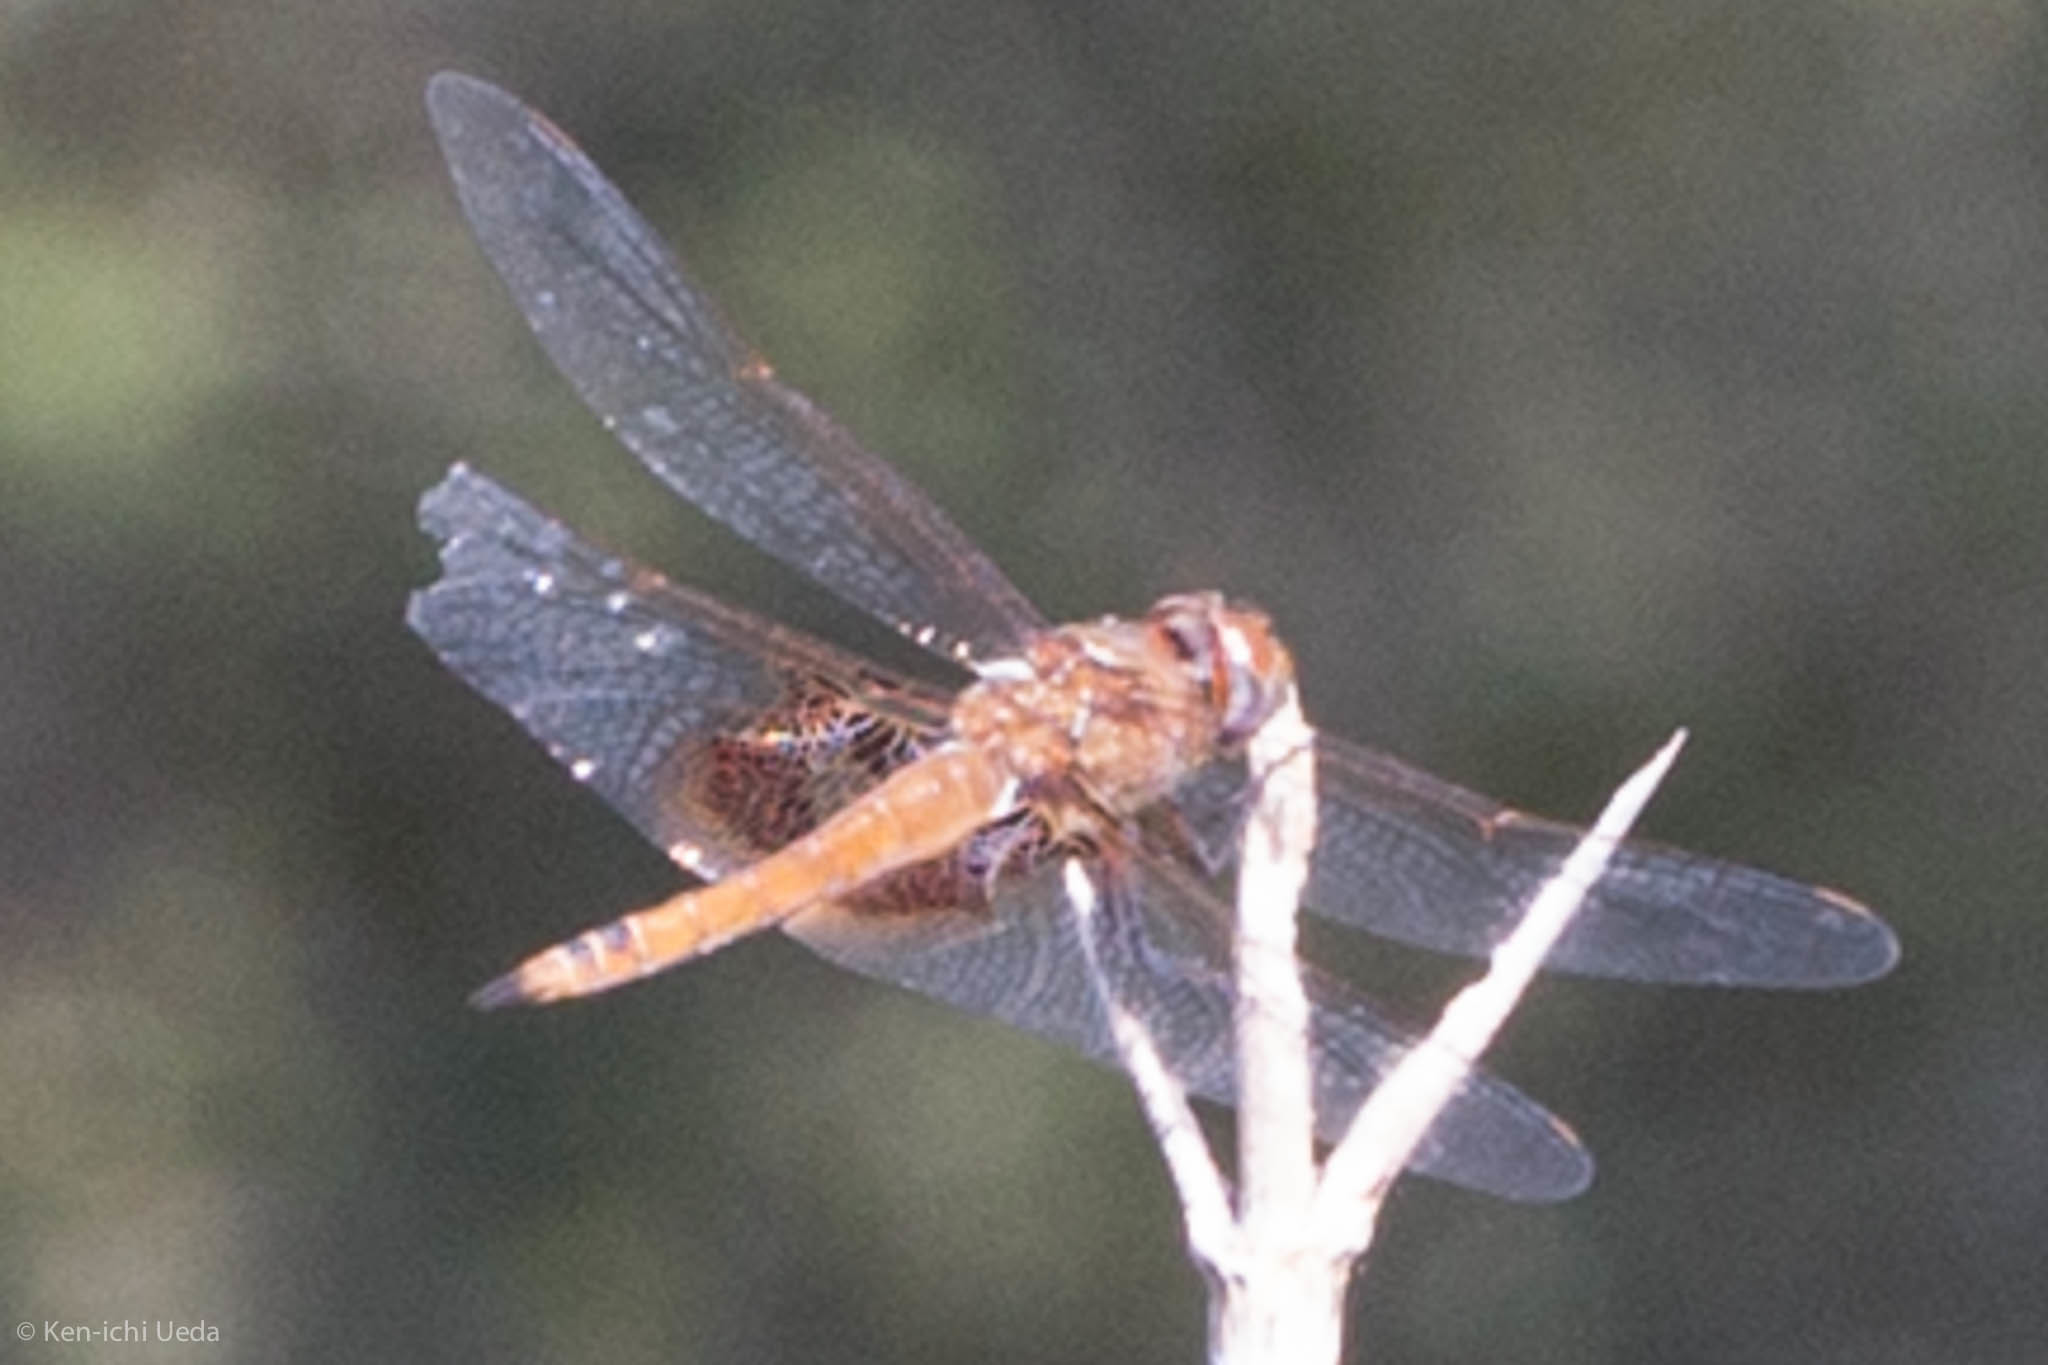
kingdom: Animalia
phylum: Arthropoda
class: Insecta
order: Odonata
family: Libellulidae
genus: Tramea
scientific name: Tramea onusta
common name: Red saddlebags
